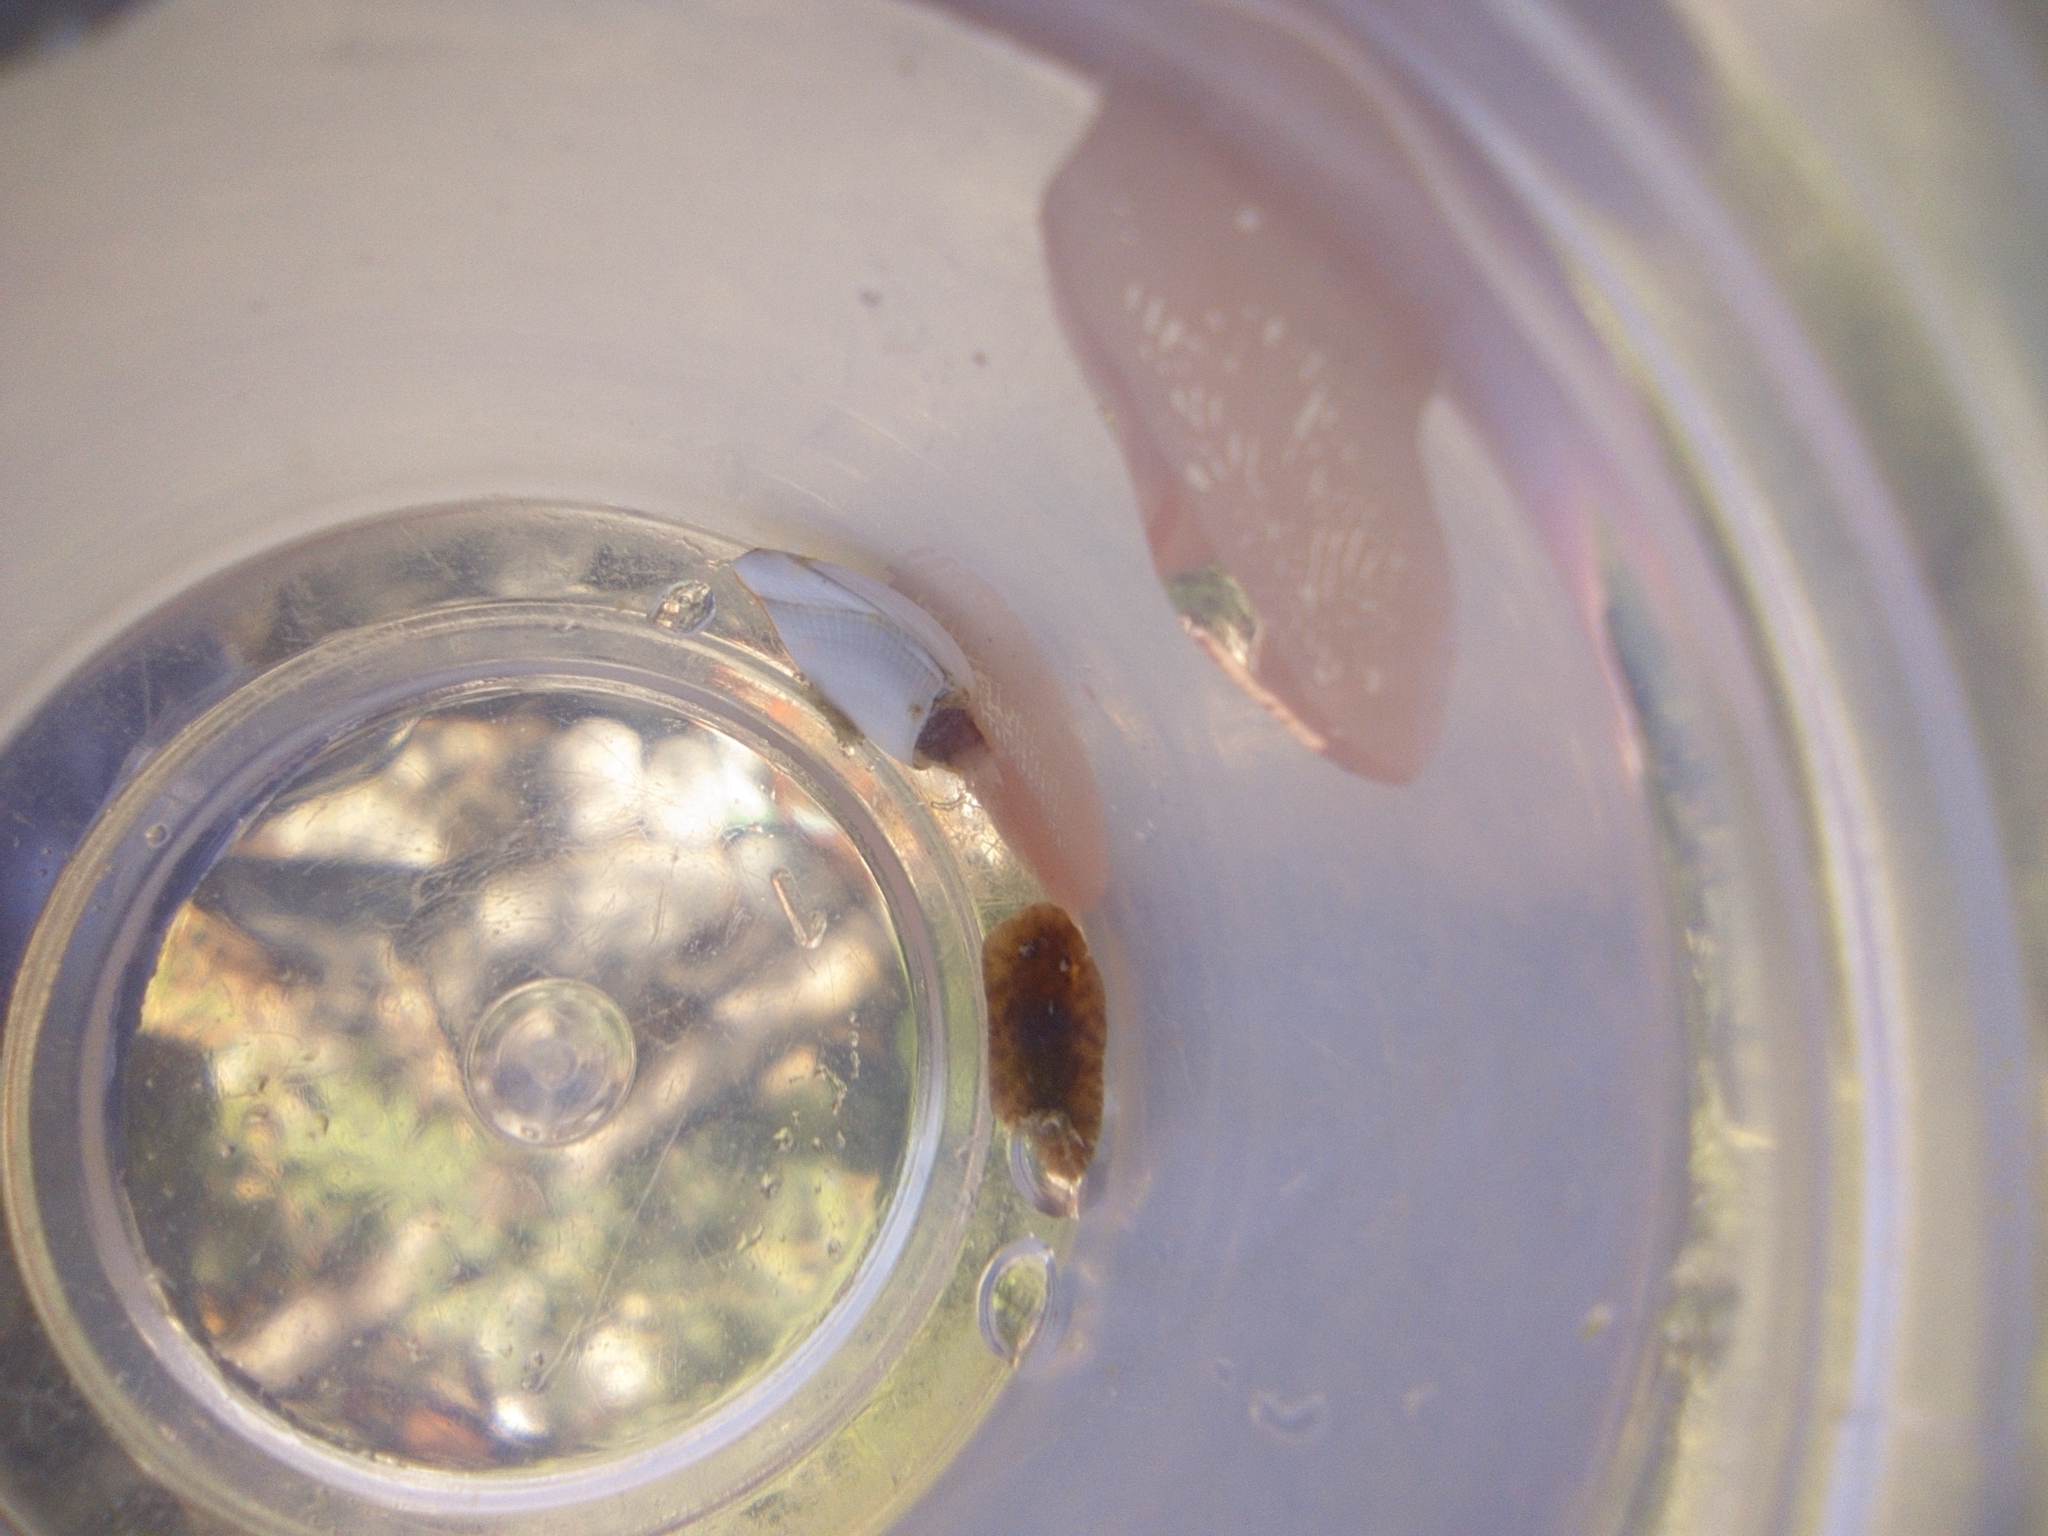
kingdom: Animalia
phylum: Mollusca
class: Gastropoda
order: Nudibranchia
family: Discodorididae
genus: Taringa
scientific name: Taringa telopia
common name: Orangeball taringa
